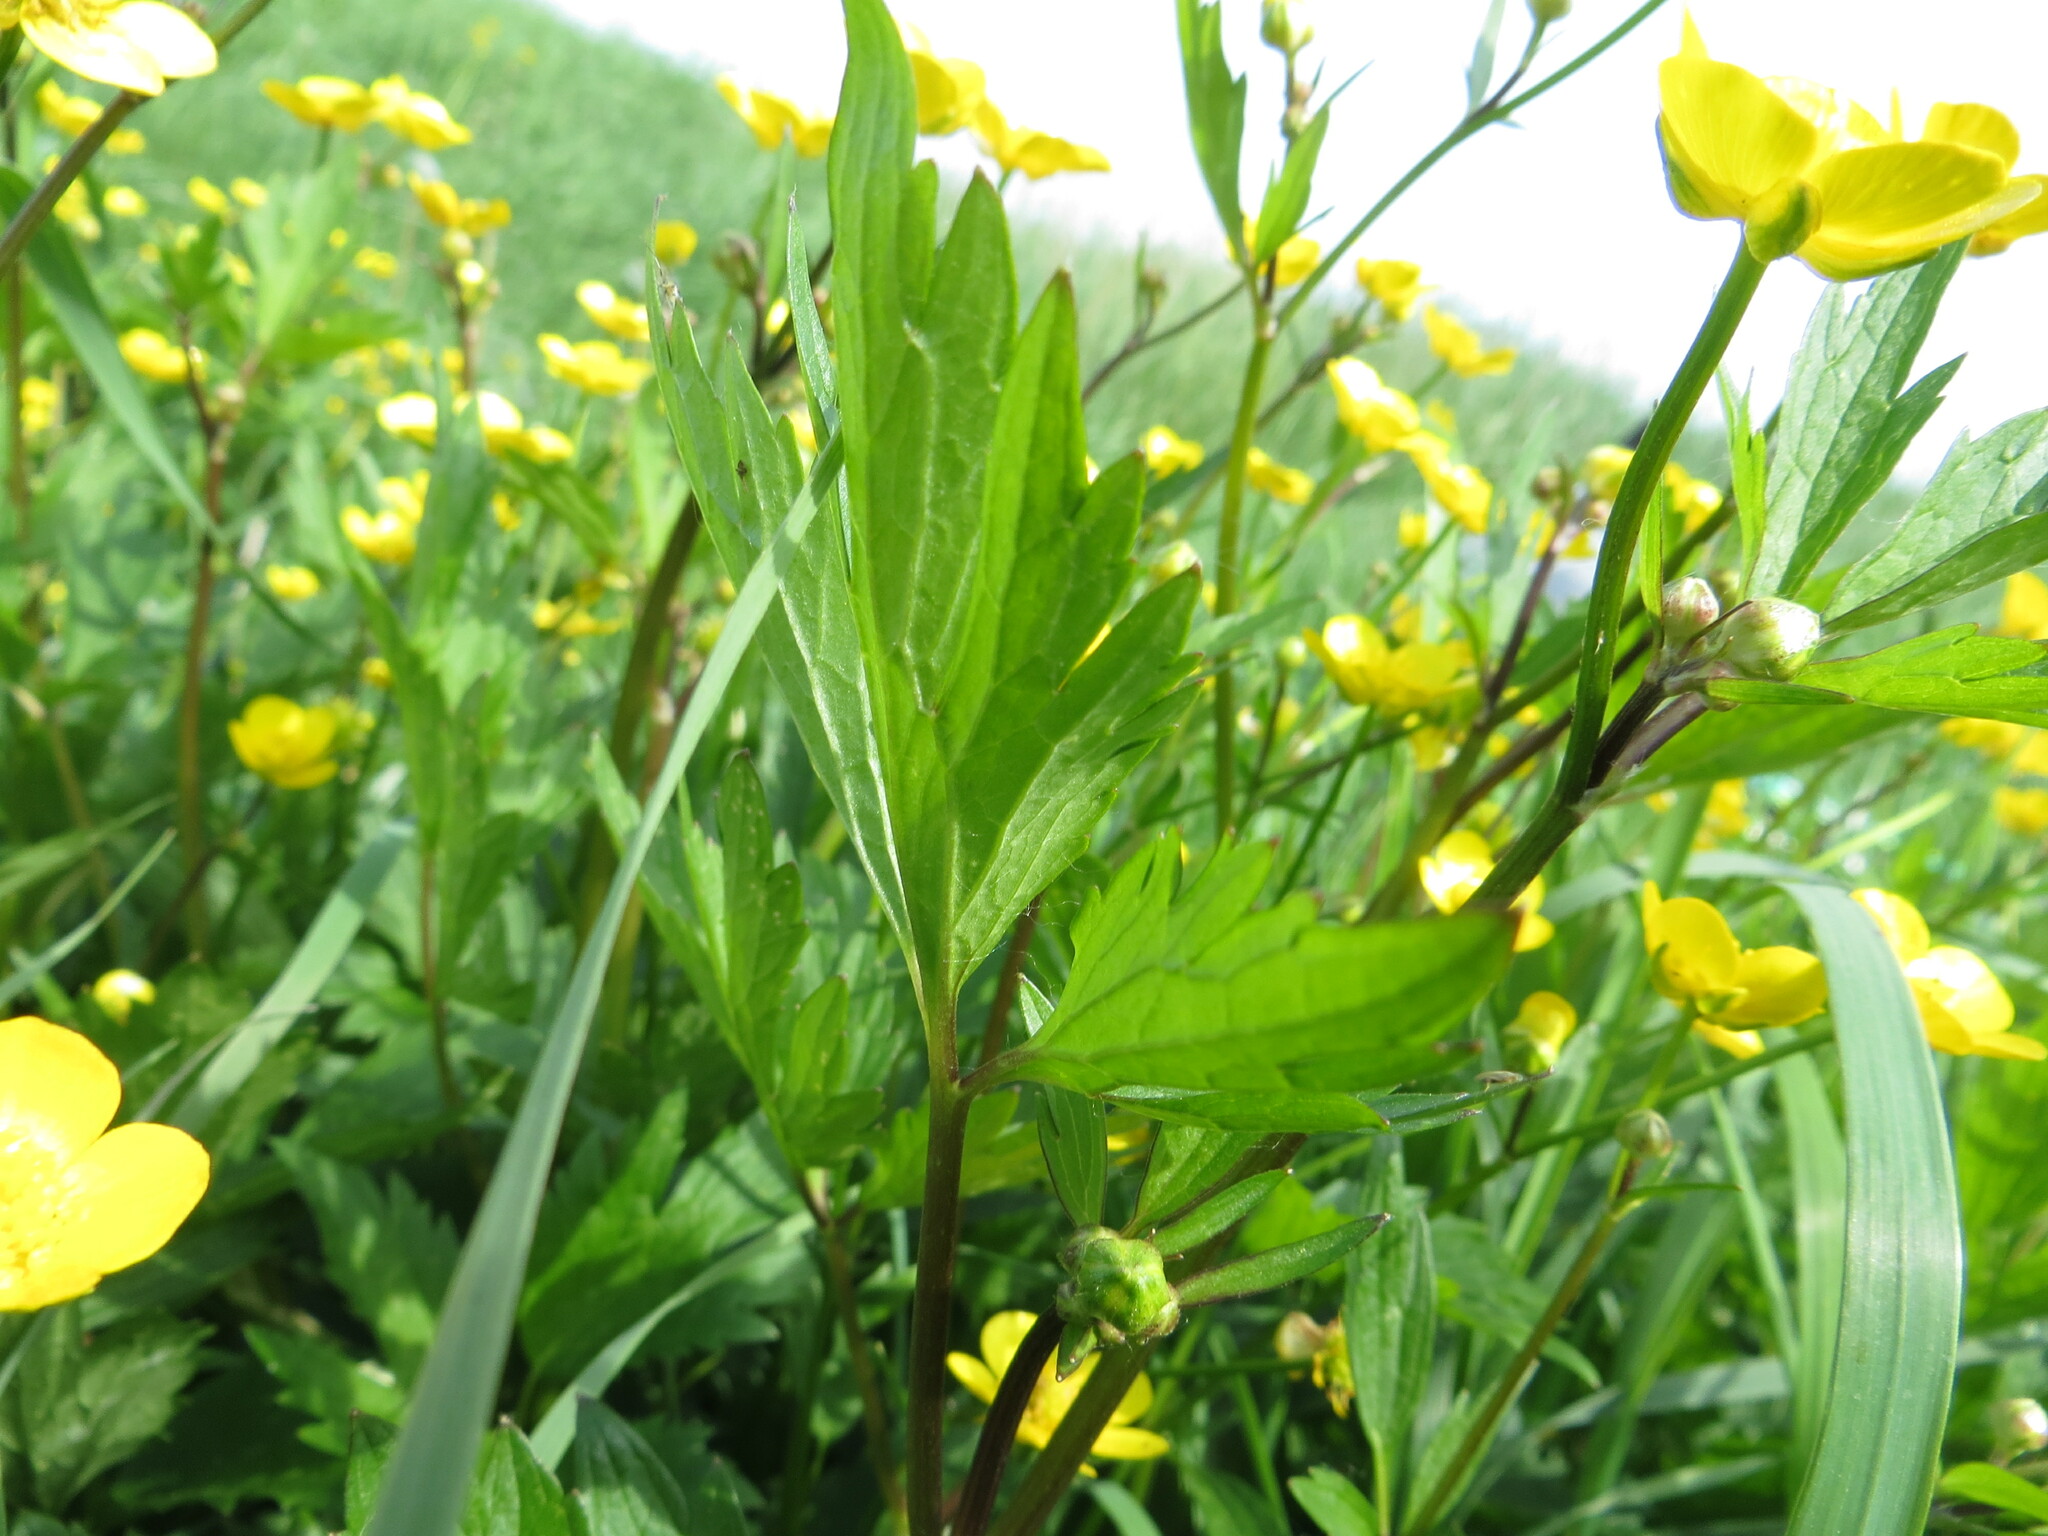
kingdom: Plantae
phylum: Tracheophyta
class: Magnoliopsida
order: Ranunculales
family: Ranunculaceae
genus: Ranunculus
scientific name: Ranunculus repens
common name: Creeping buttercup
